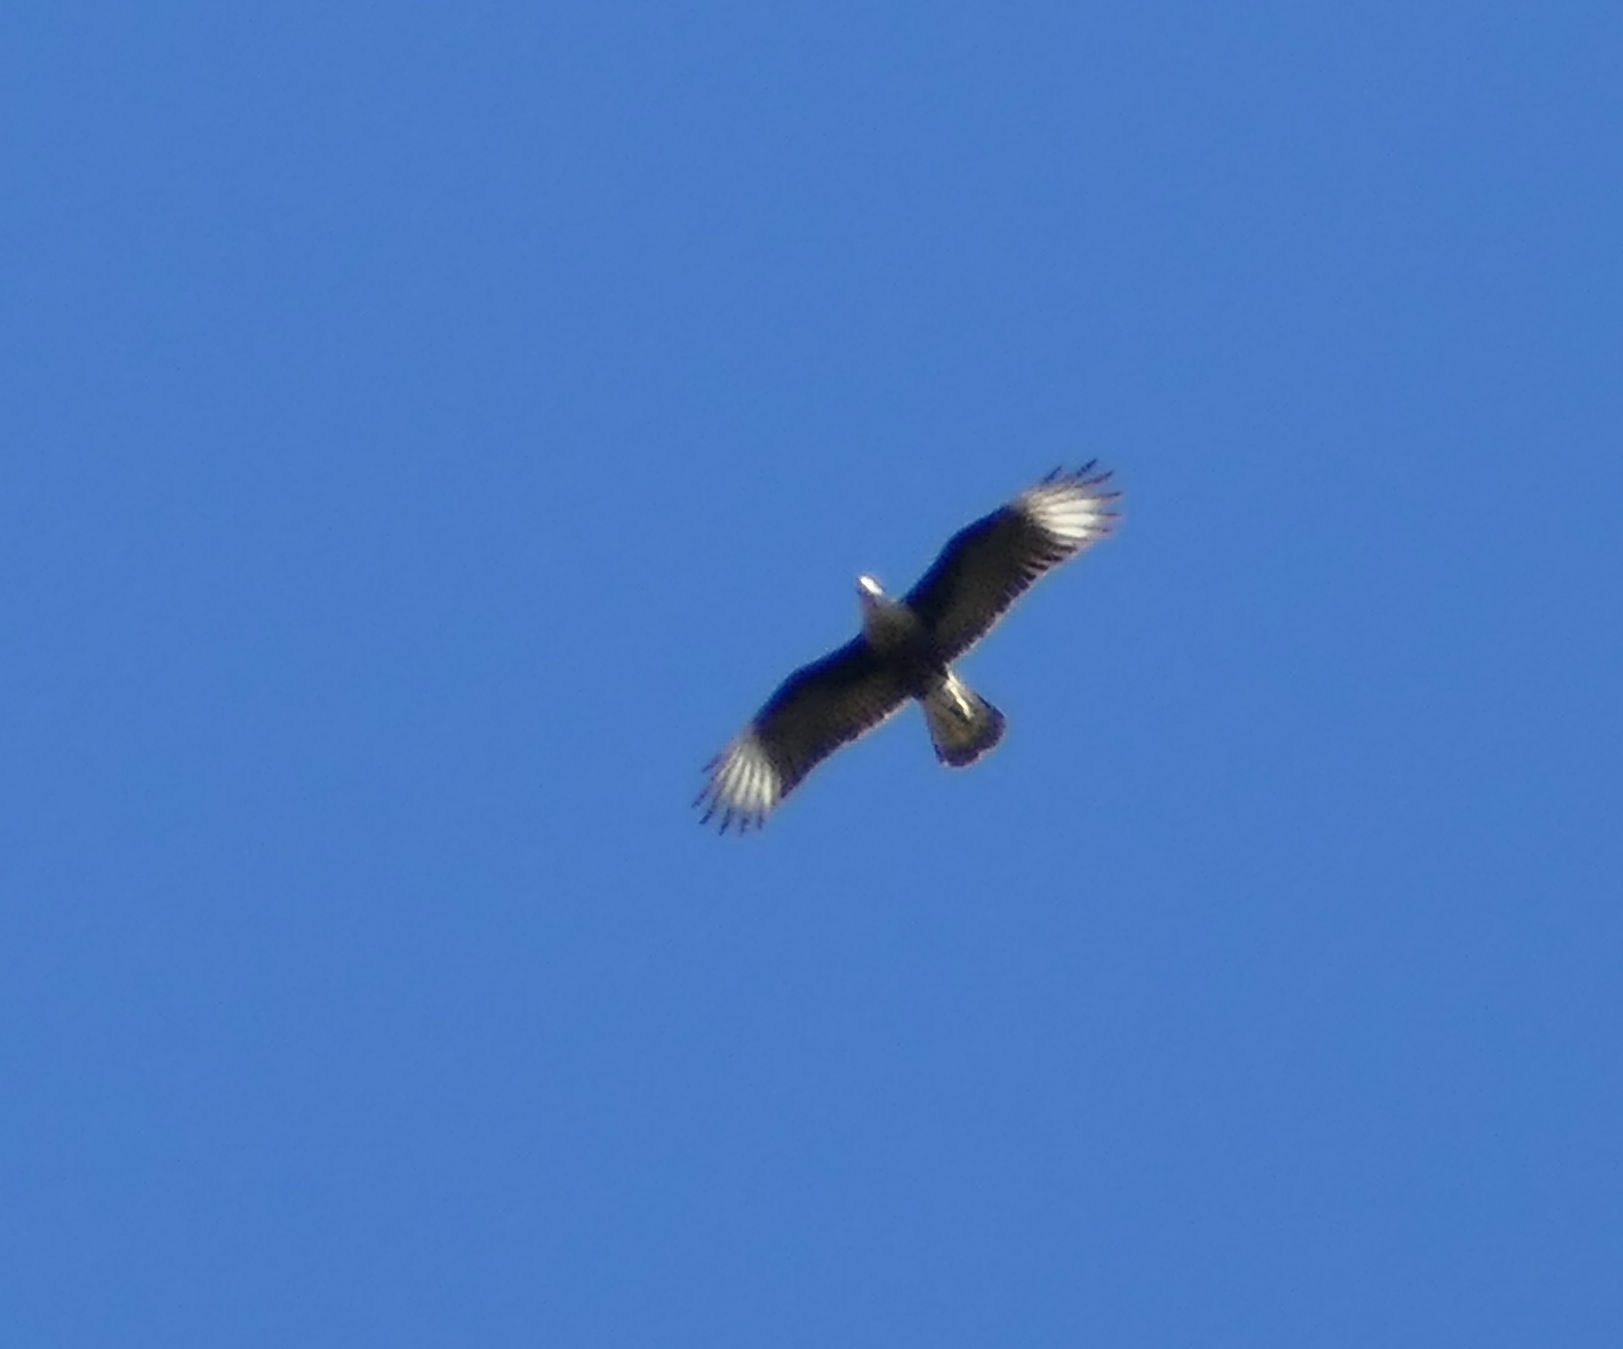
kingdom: Animalia
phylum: Chordata
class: Aves
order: Falconiformes
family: Falconidae
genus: Caracara
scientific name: Caracara plancus
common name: Southern caracara
